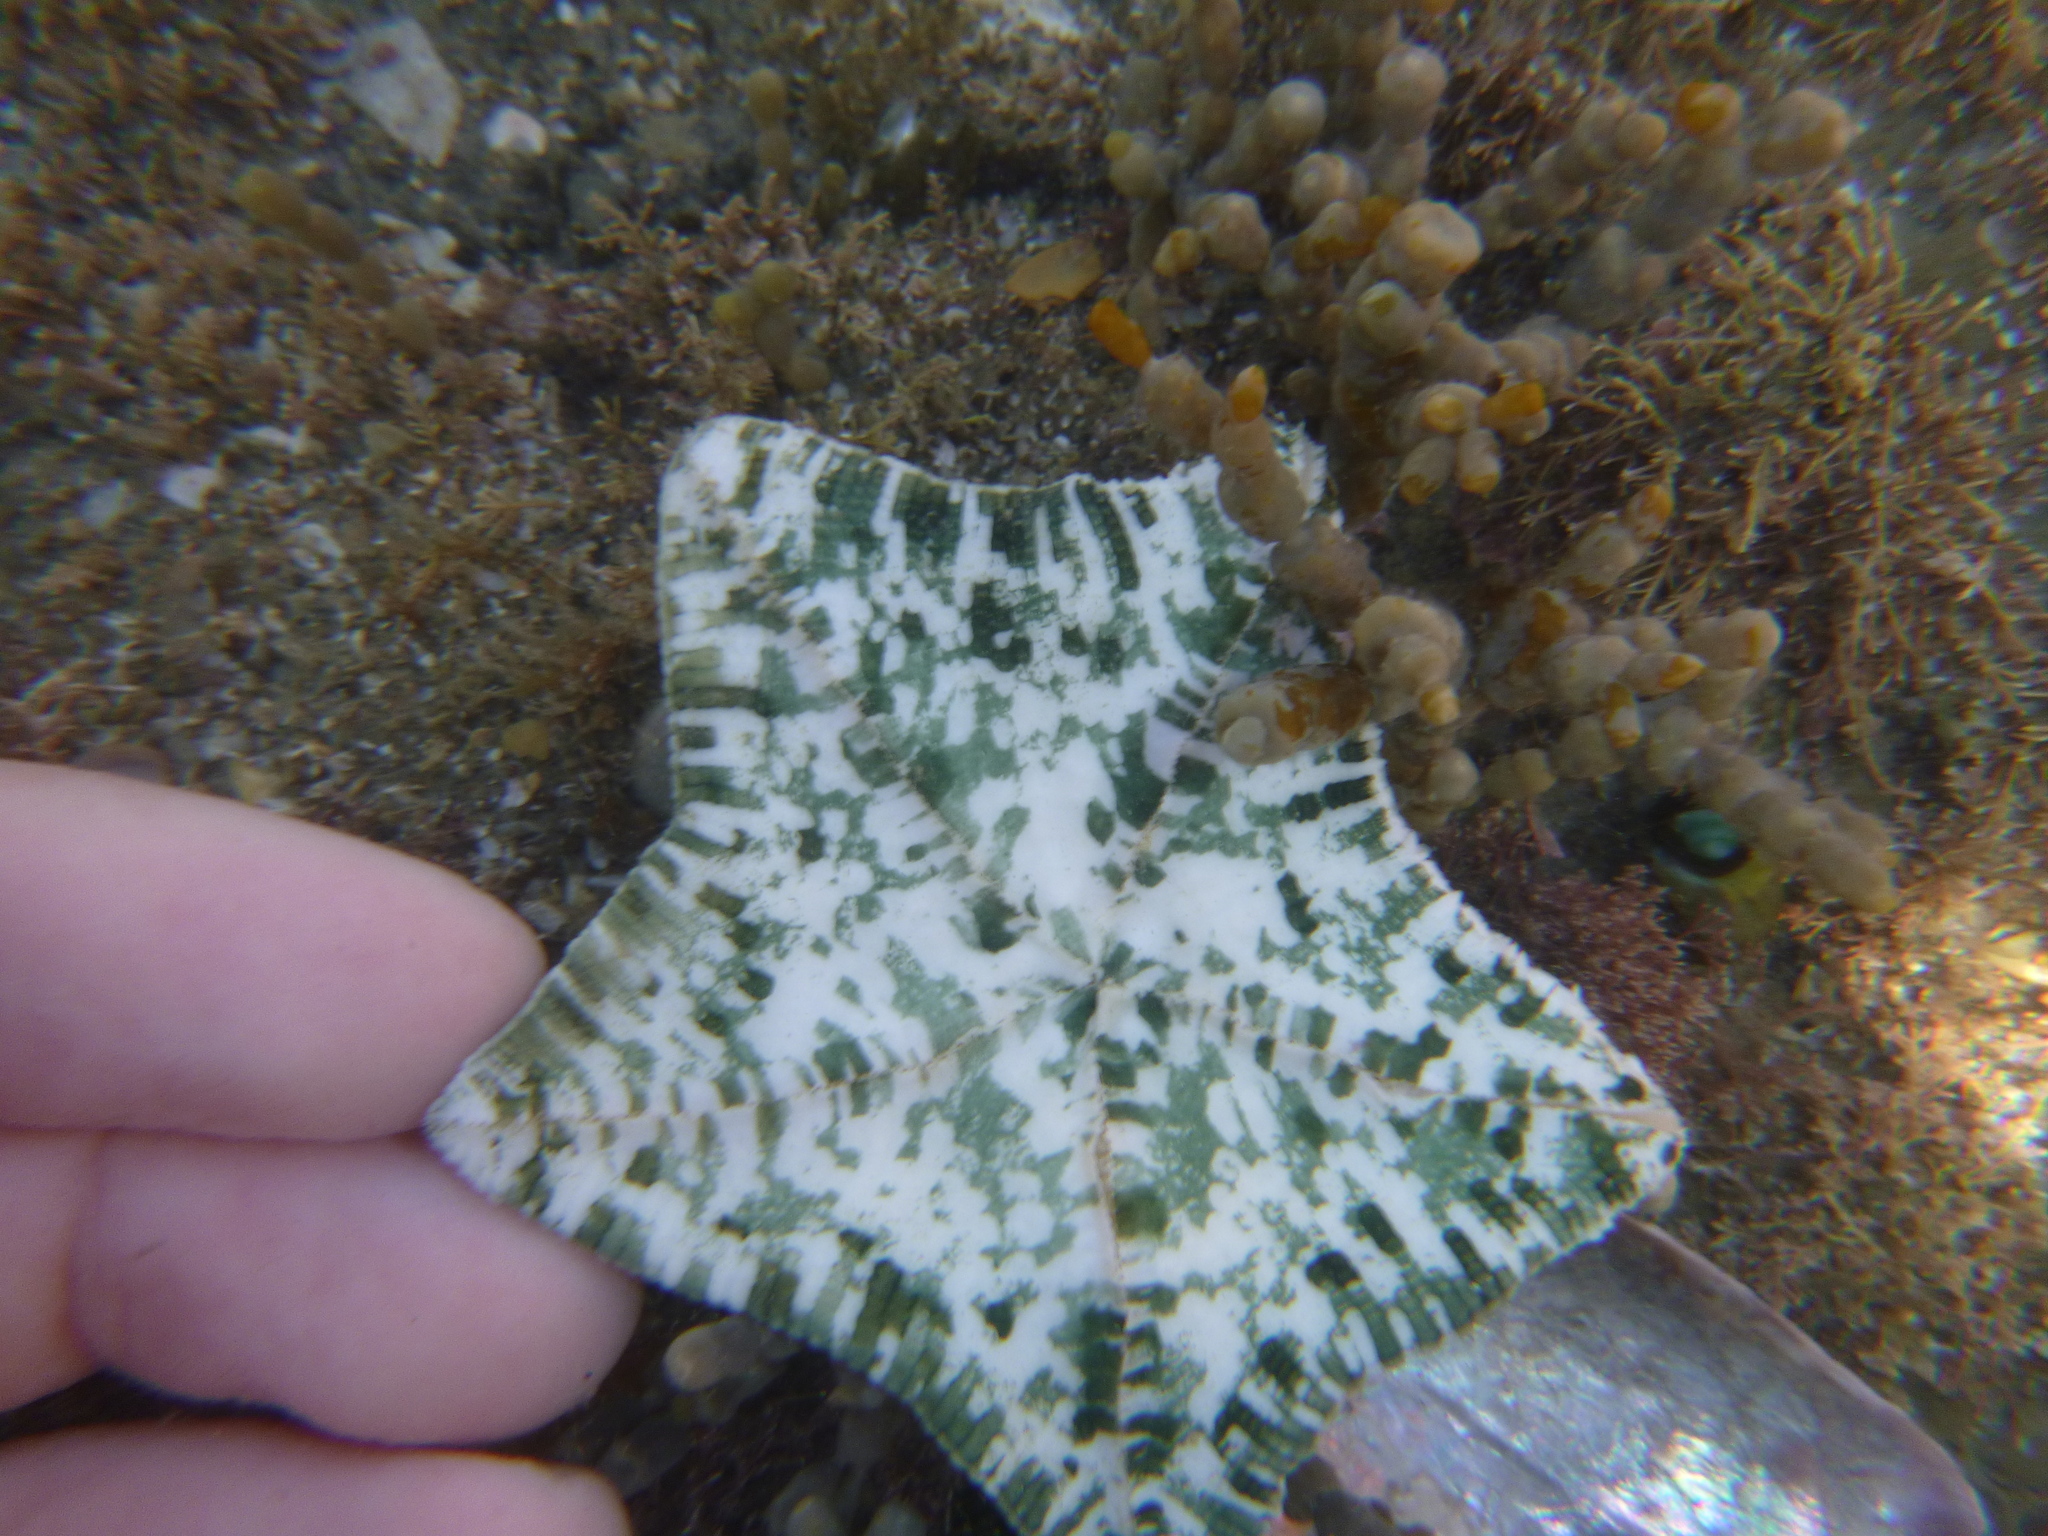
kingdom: Animalia
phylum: Echinodermata
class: Asteroidea
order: Valvatida
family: Asterinidae
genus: Stegnaster
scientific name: Stegnaster inflatus
